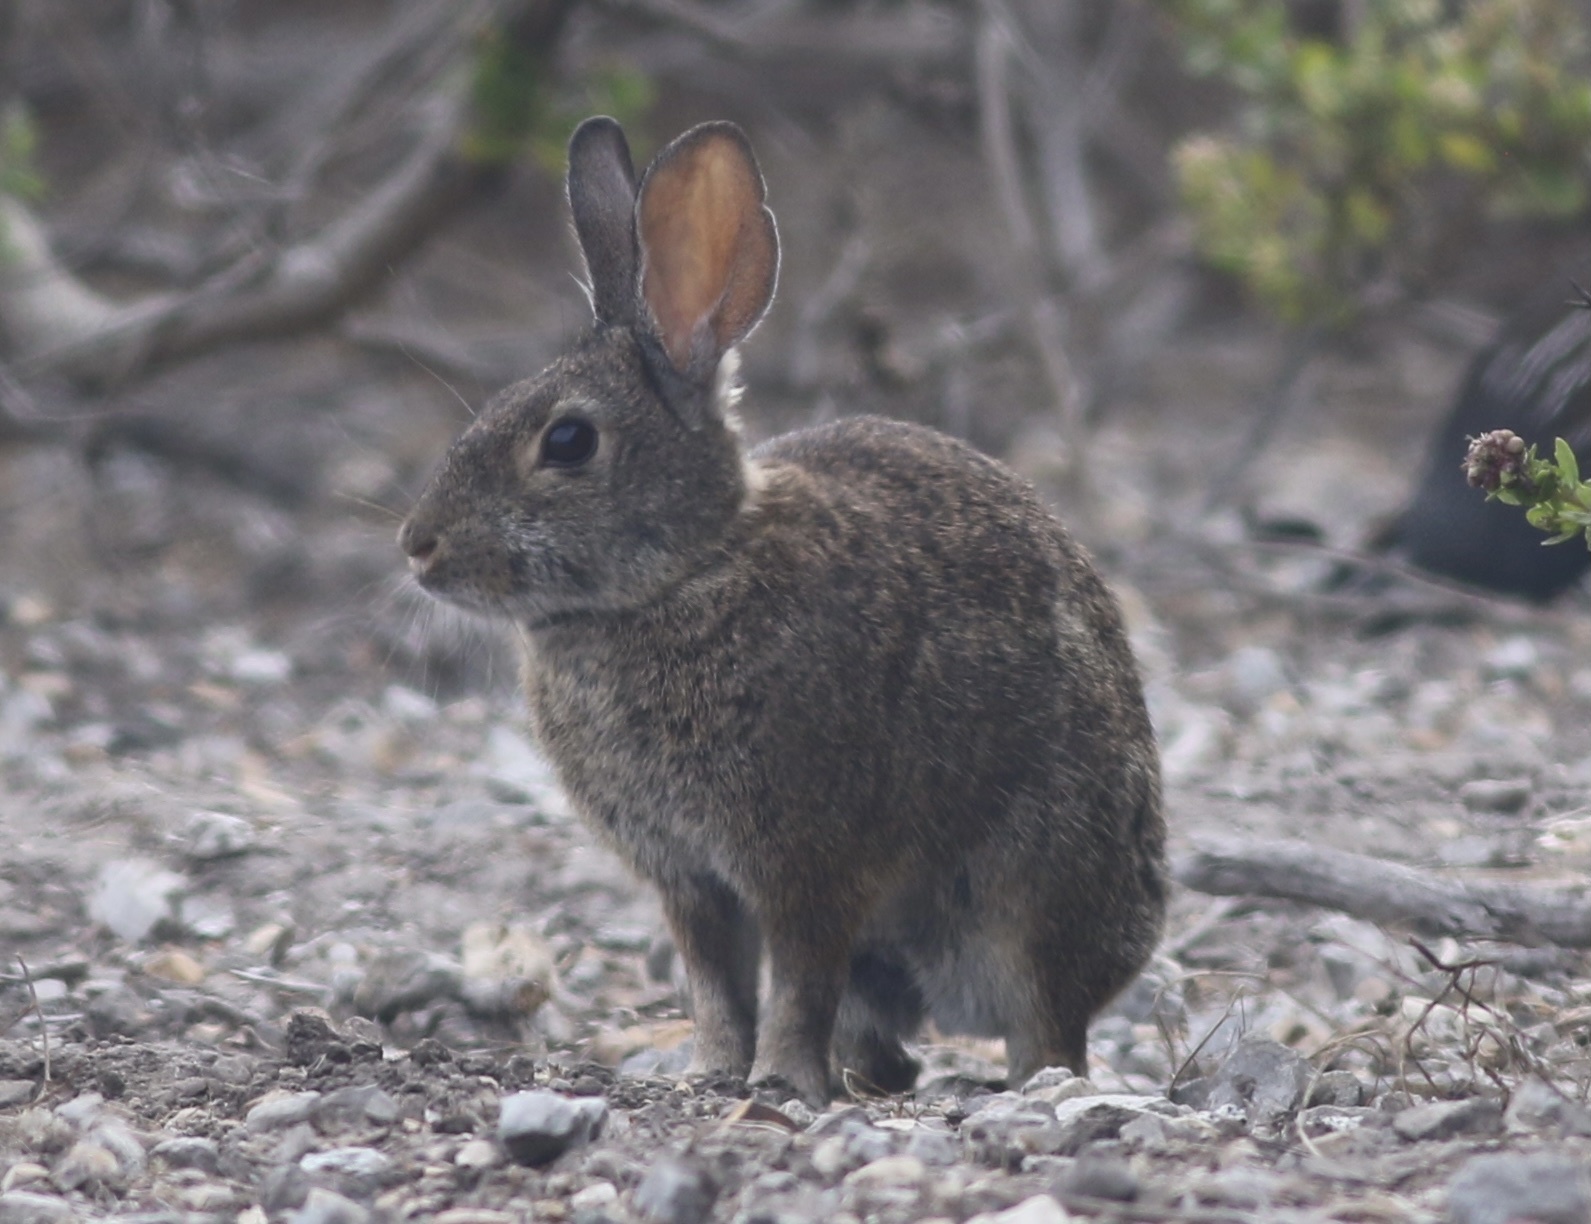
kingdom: Animalia
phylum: Chordata
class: Mammalia
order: Lagomorpha
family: Leporidae
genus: Sylvilagus
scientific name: Sylvilagus bachmani
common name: Brush rabbit
